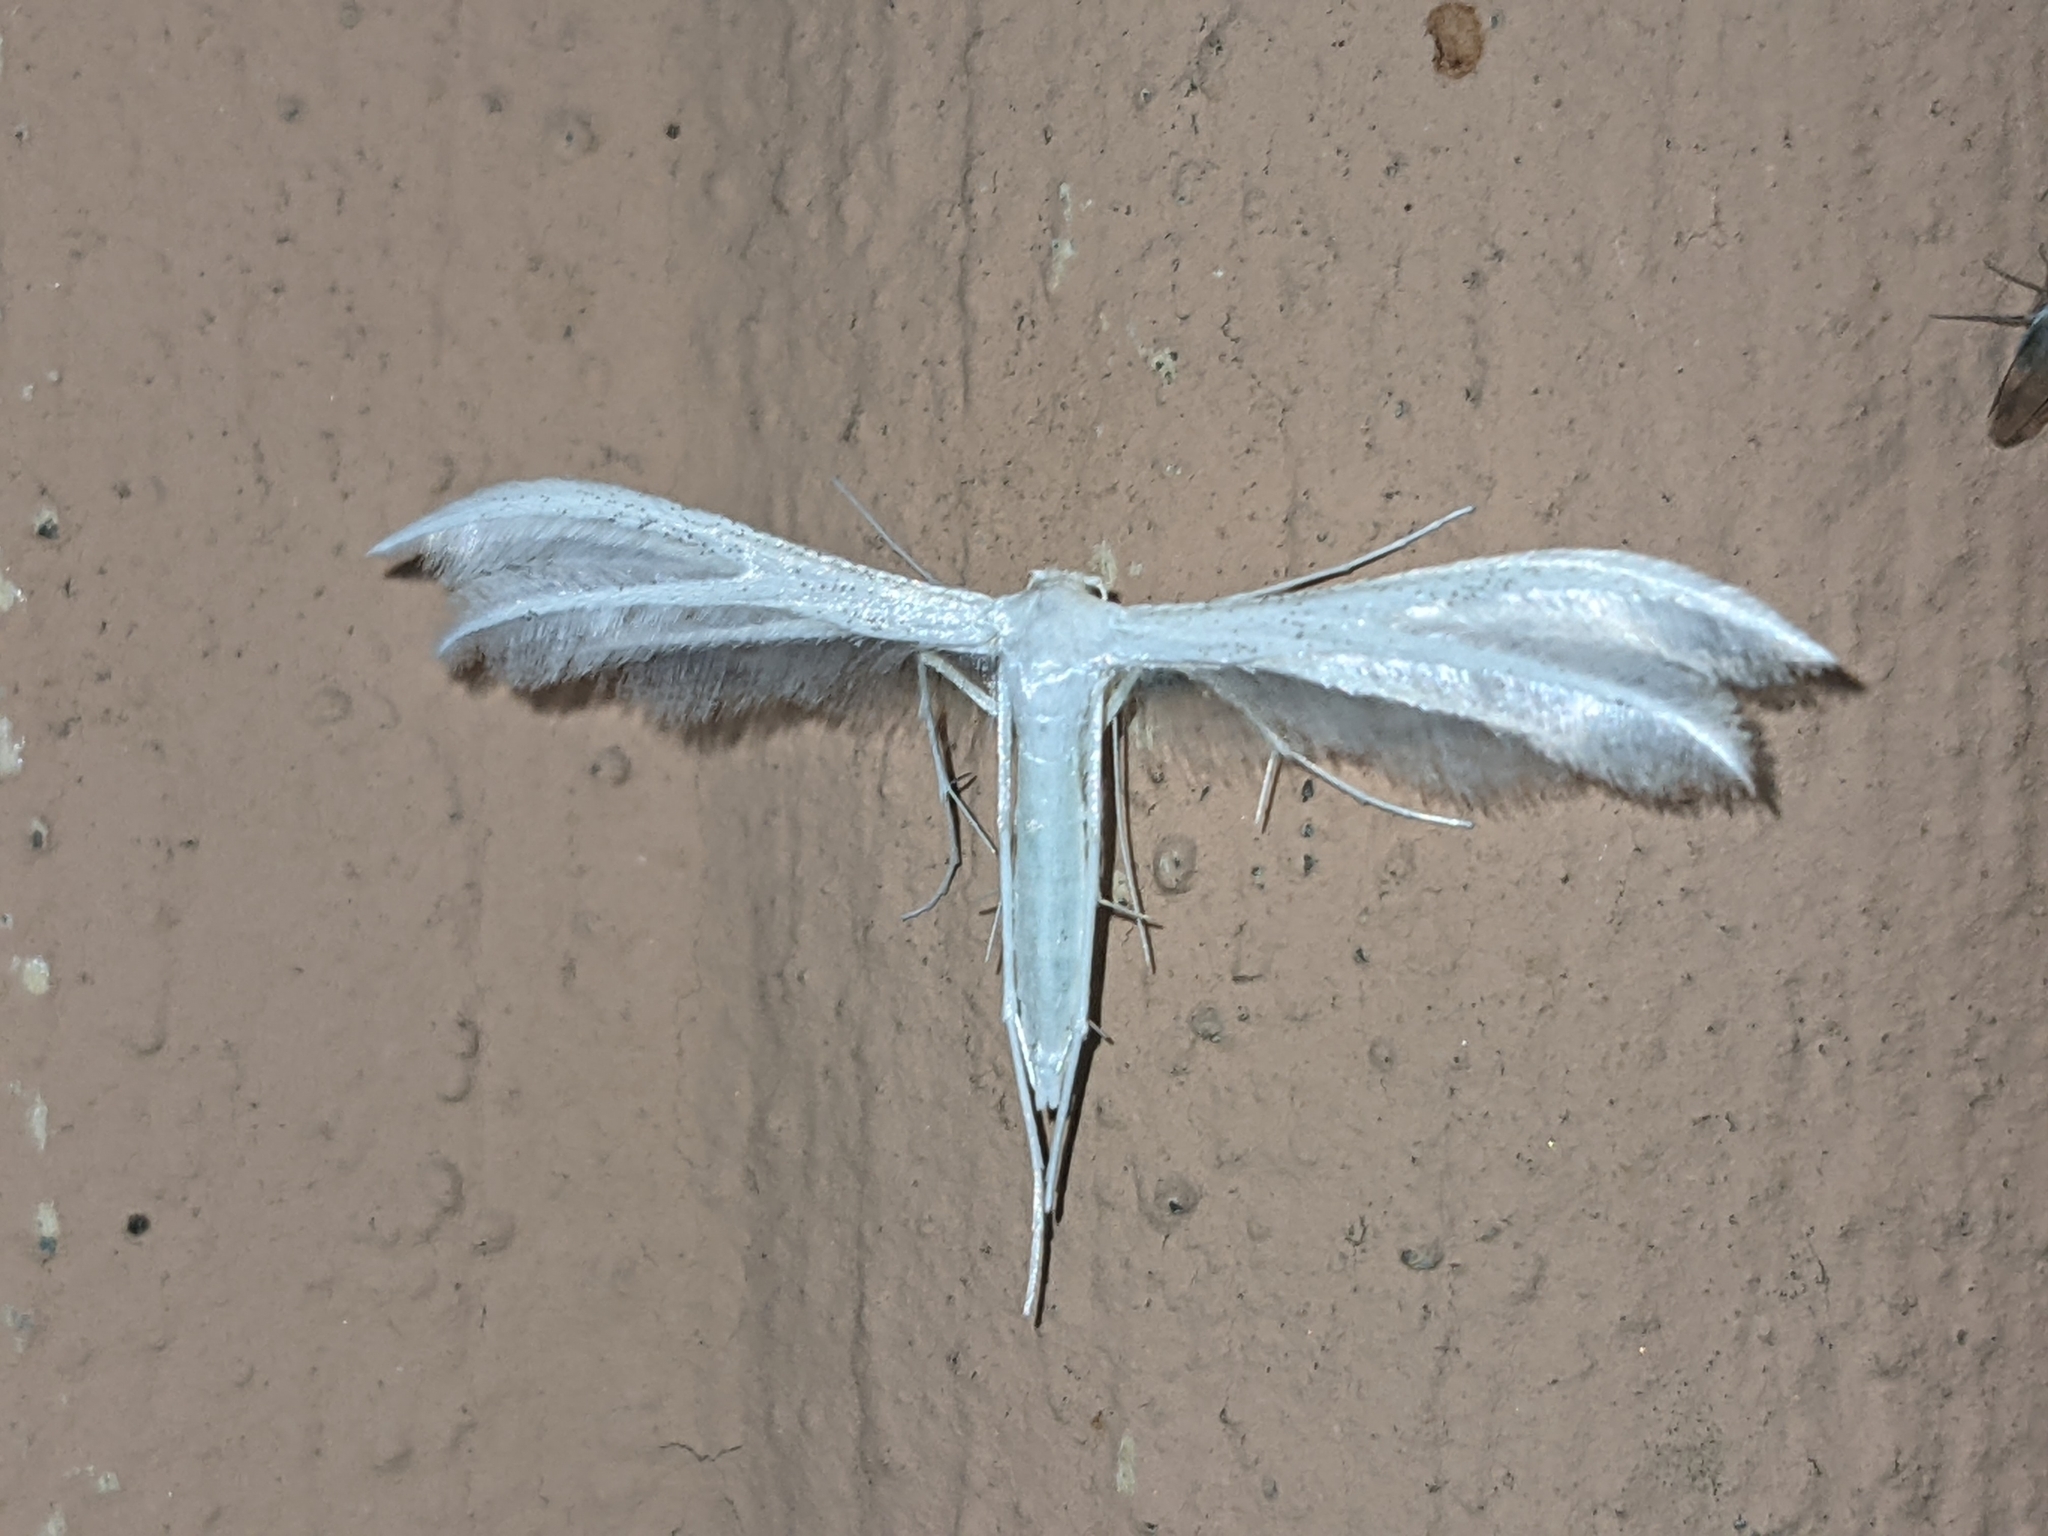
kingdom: Animalia
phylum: Arthropoda
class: Insecta
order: Lepidoptera
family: Pterophoridae
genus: Pterophorus
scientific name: Pterophorus pentadactyla
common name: White plume moth
